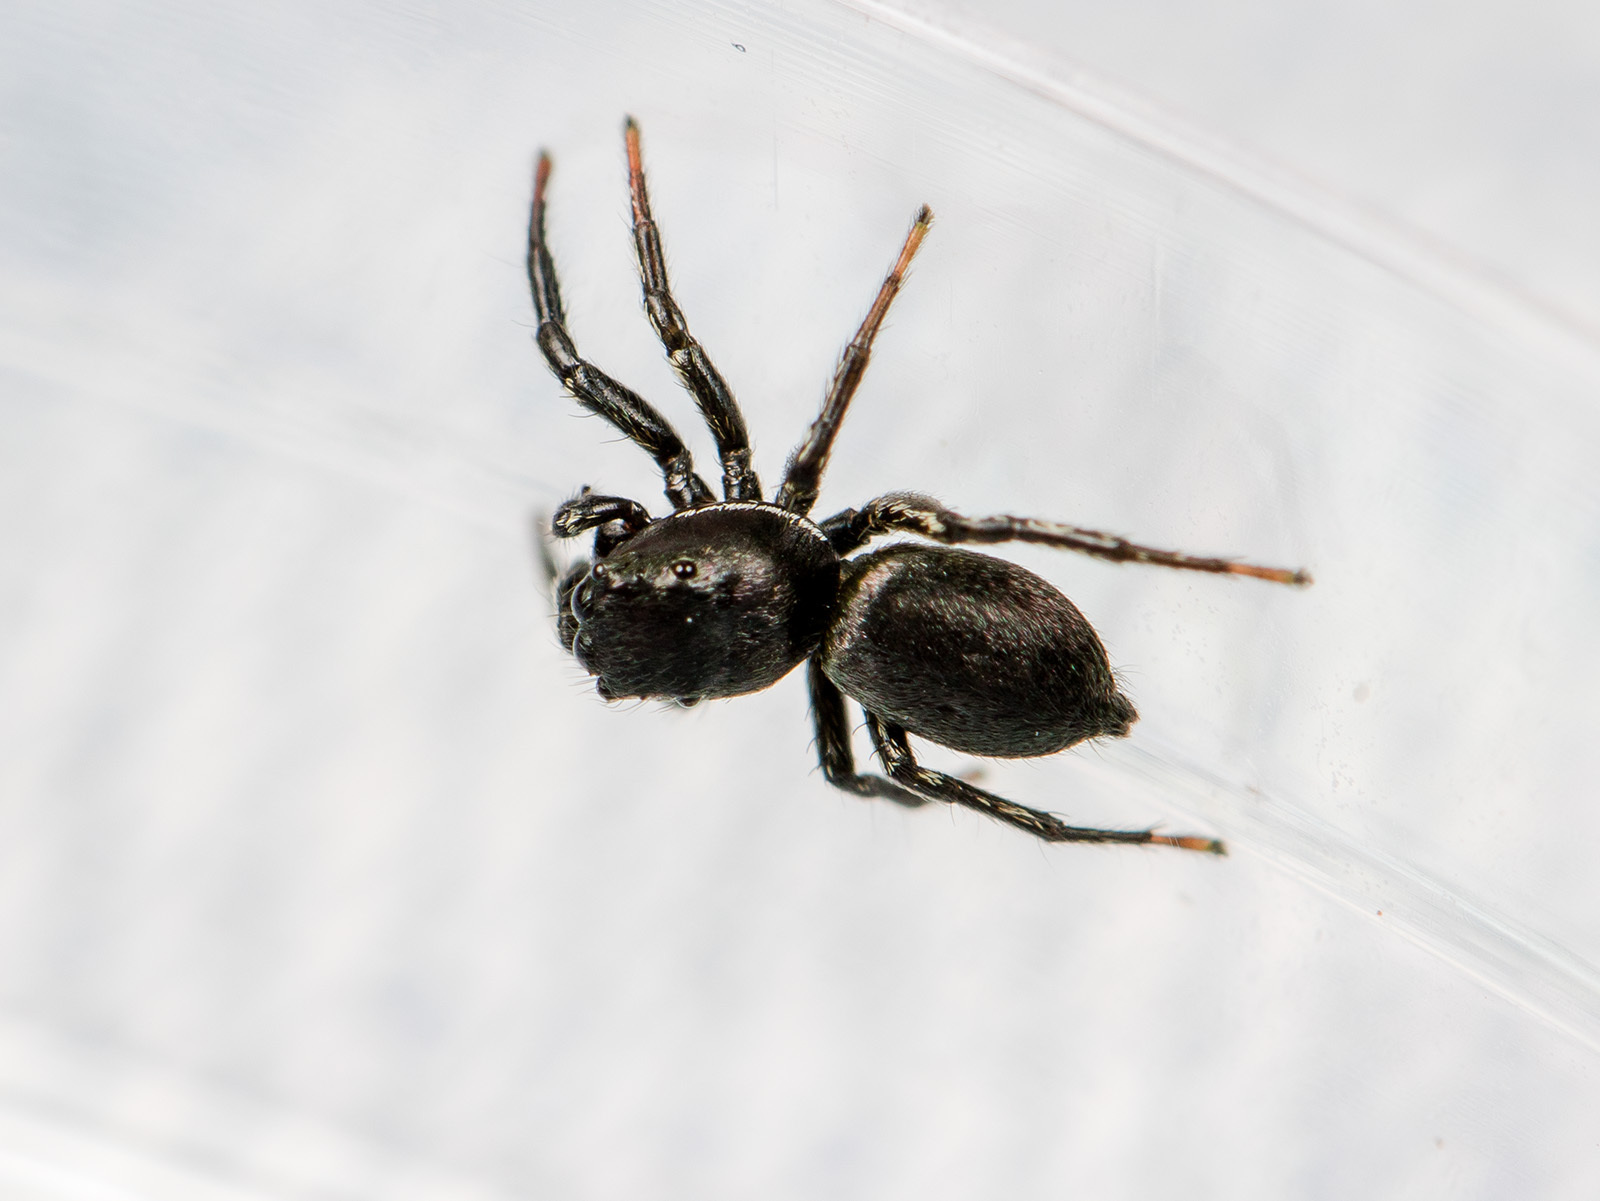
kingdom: Animalia
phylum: Arthropoda
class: Arachnida
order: Araneae
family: Salticidae
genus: Heliophanus
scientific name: Heliophanus potanini
